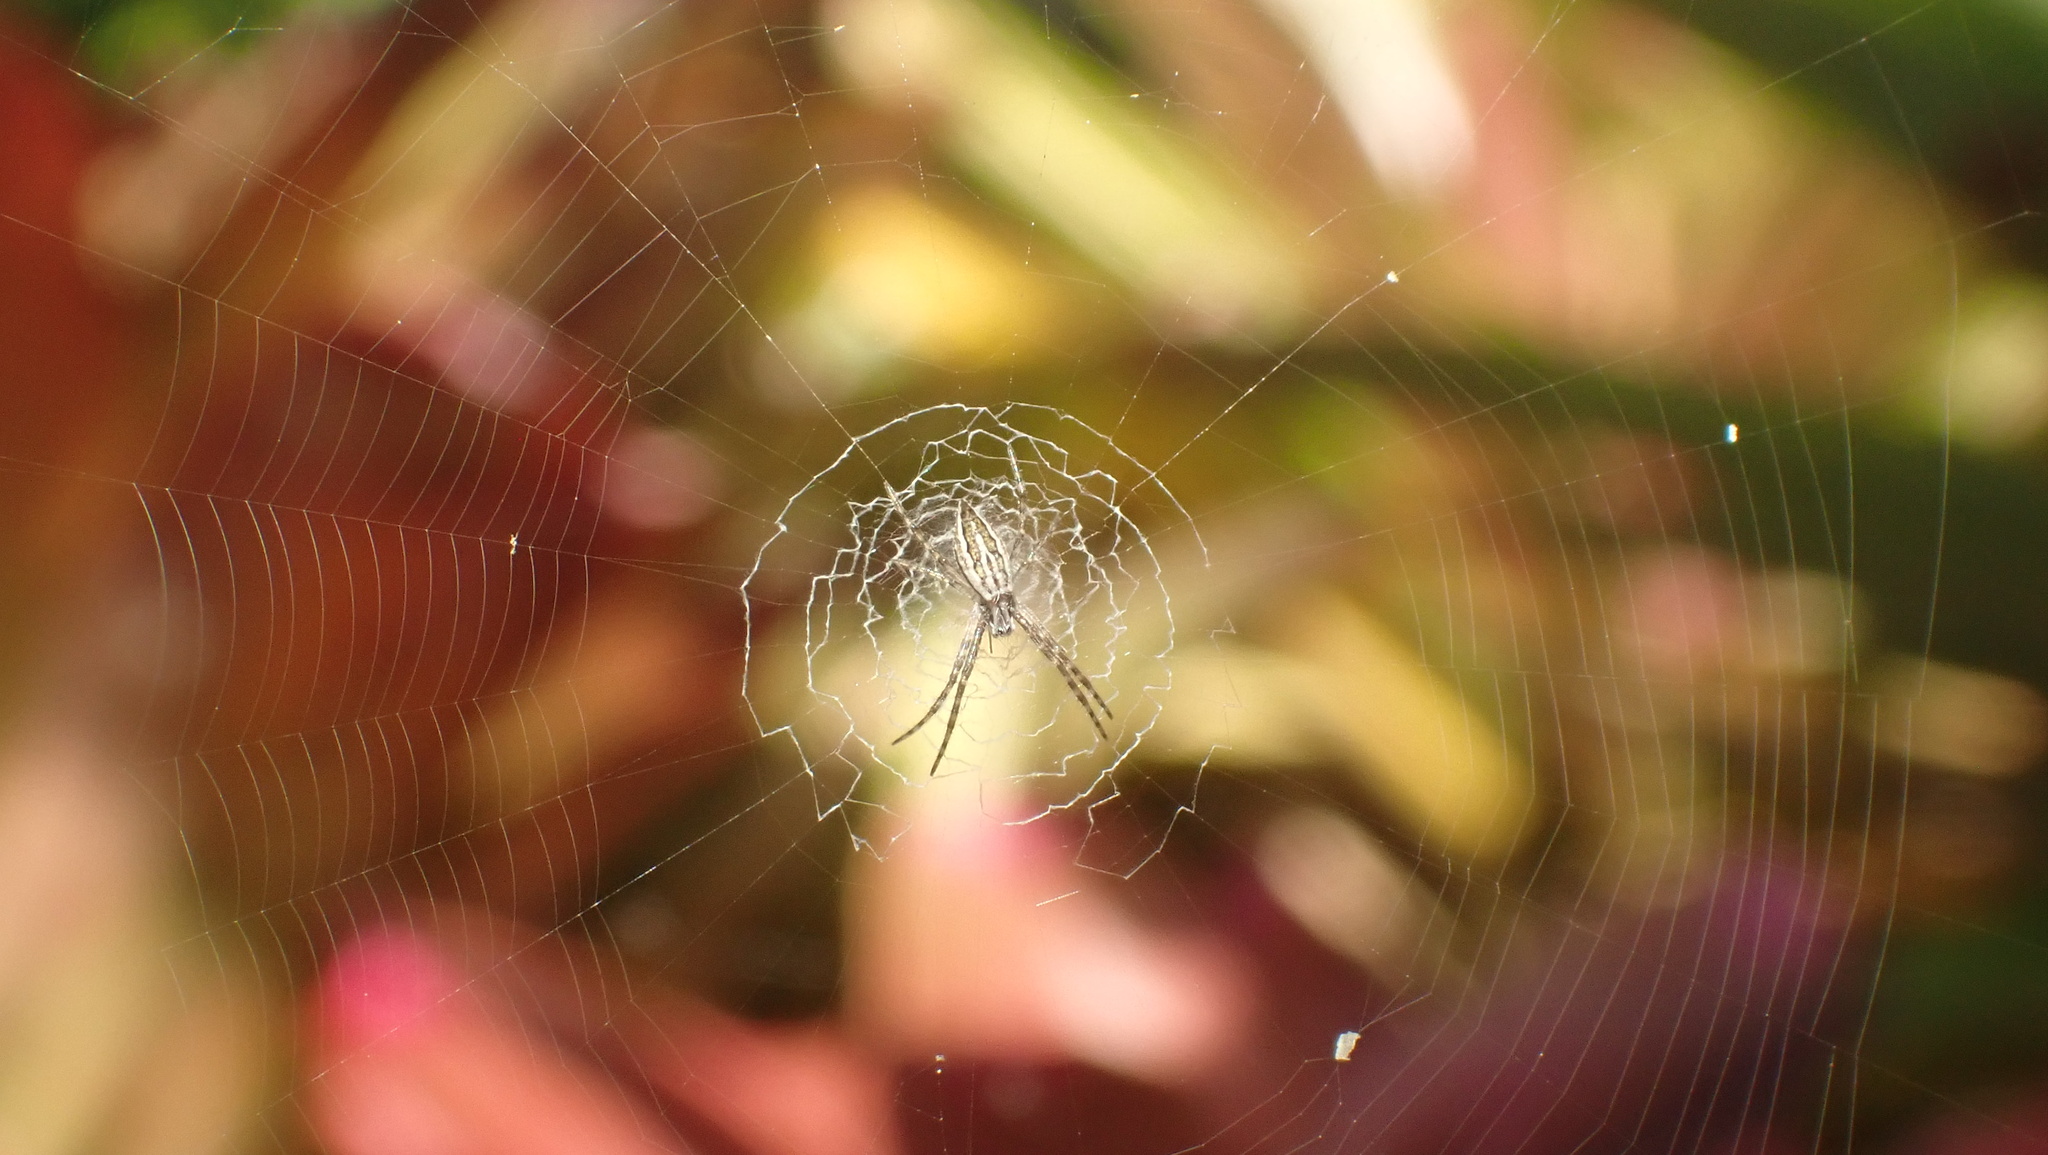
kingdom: Animalia
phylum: Arthropoda
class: Arachnida
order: Araneae
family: Araneidae
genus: Argiope
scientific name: Argiope argentata
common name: Orb weavers
